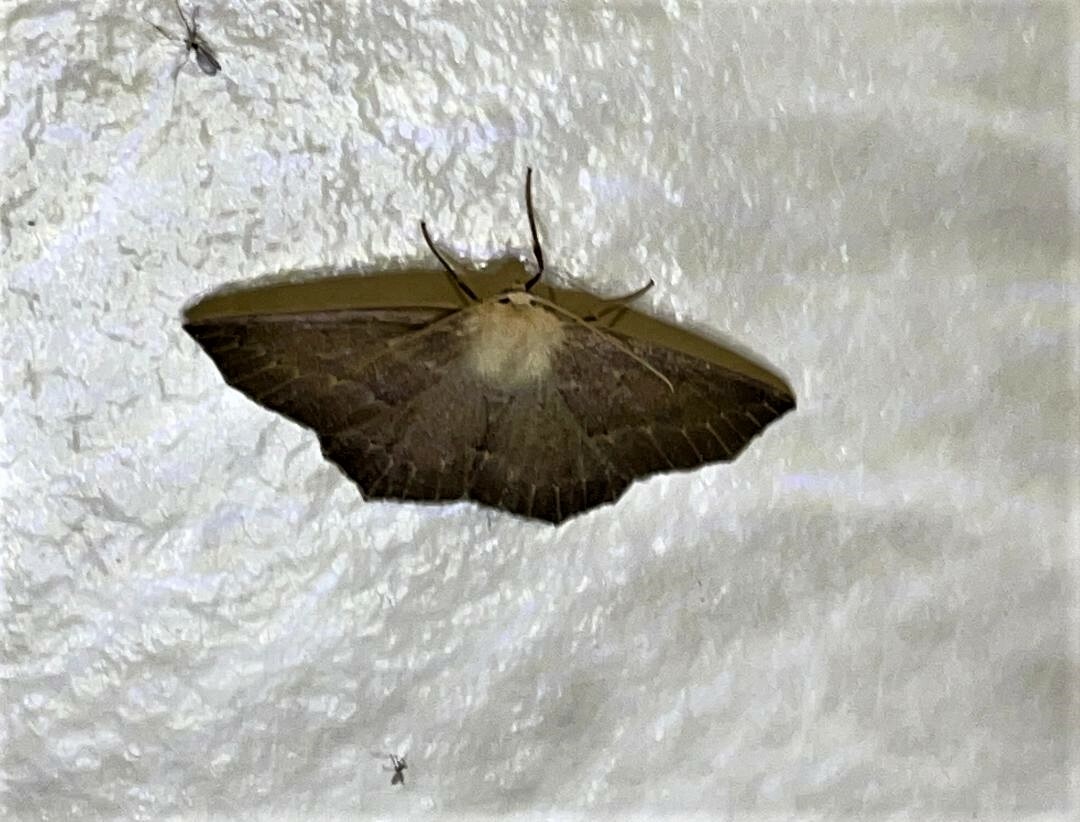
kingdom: Animalia
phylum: Arthropoda
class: Insecta
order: Lepidoptera
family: Geometridae
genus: Sabulodes
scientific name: Sabulodes aegrotata
